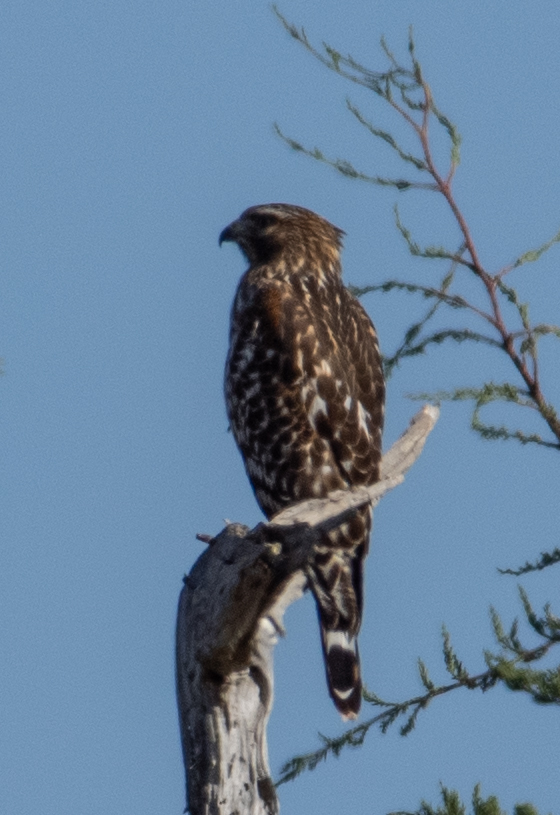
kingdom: Animalia
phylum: Chordata
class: Aves
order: Accipitriformes
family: Accipitridae
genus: Buteo
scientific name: Buteo lineatus
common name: Red-shouldered hawk
